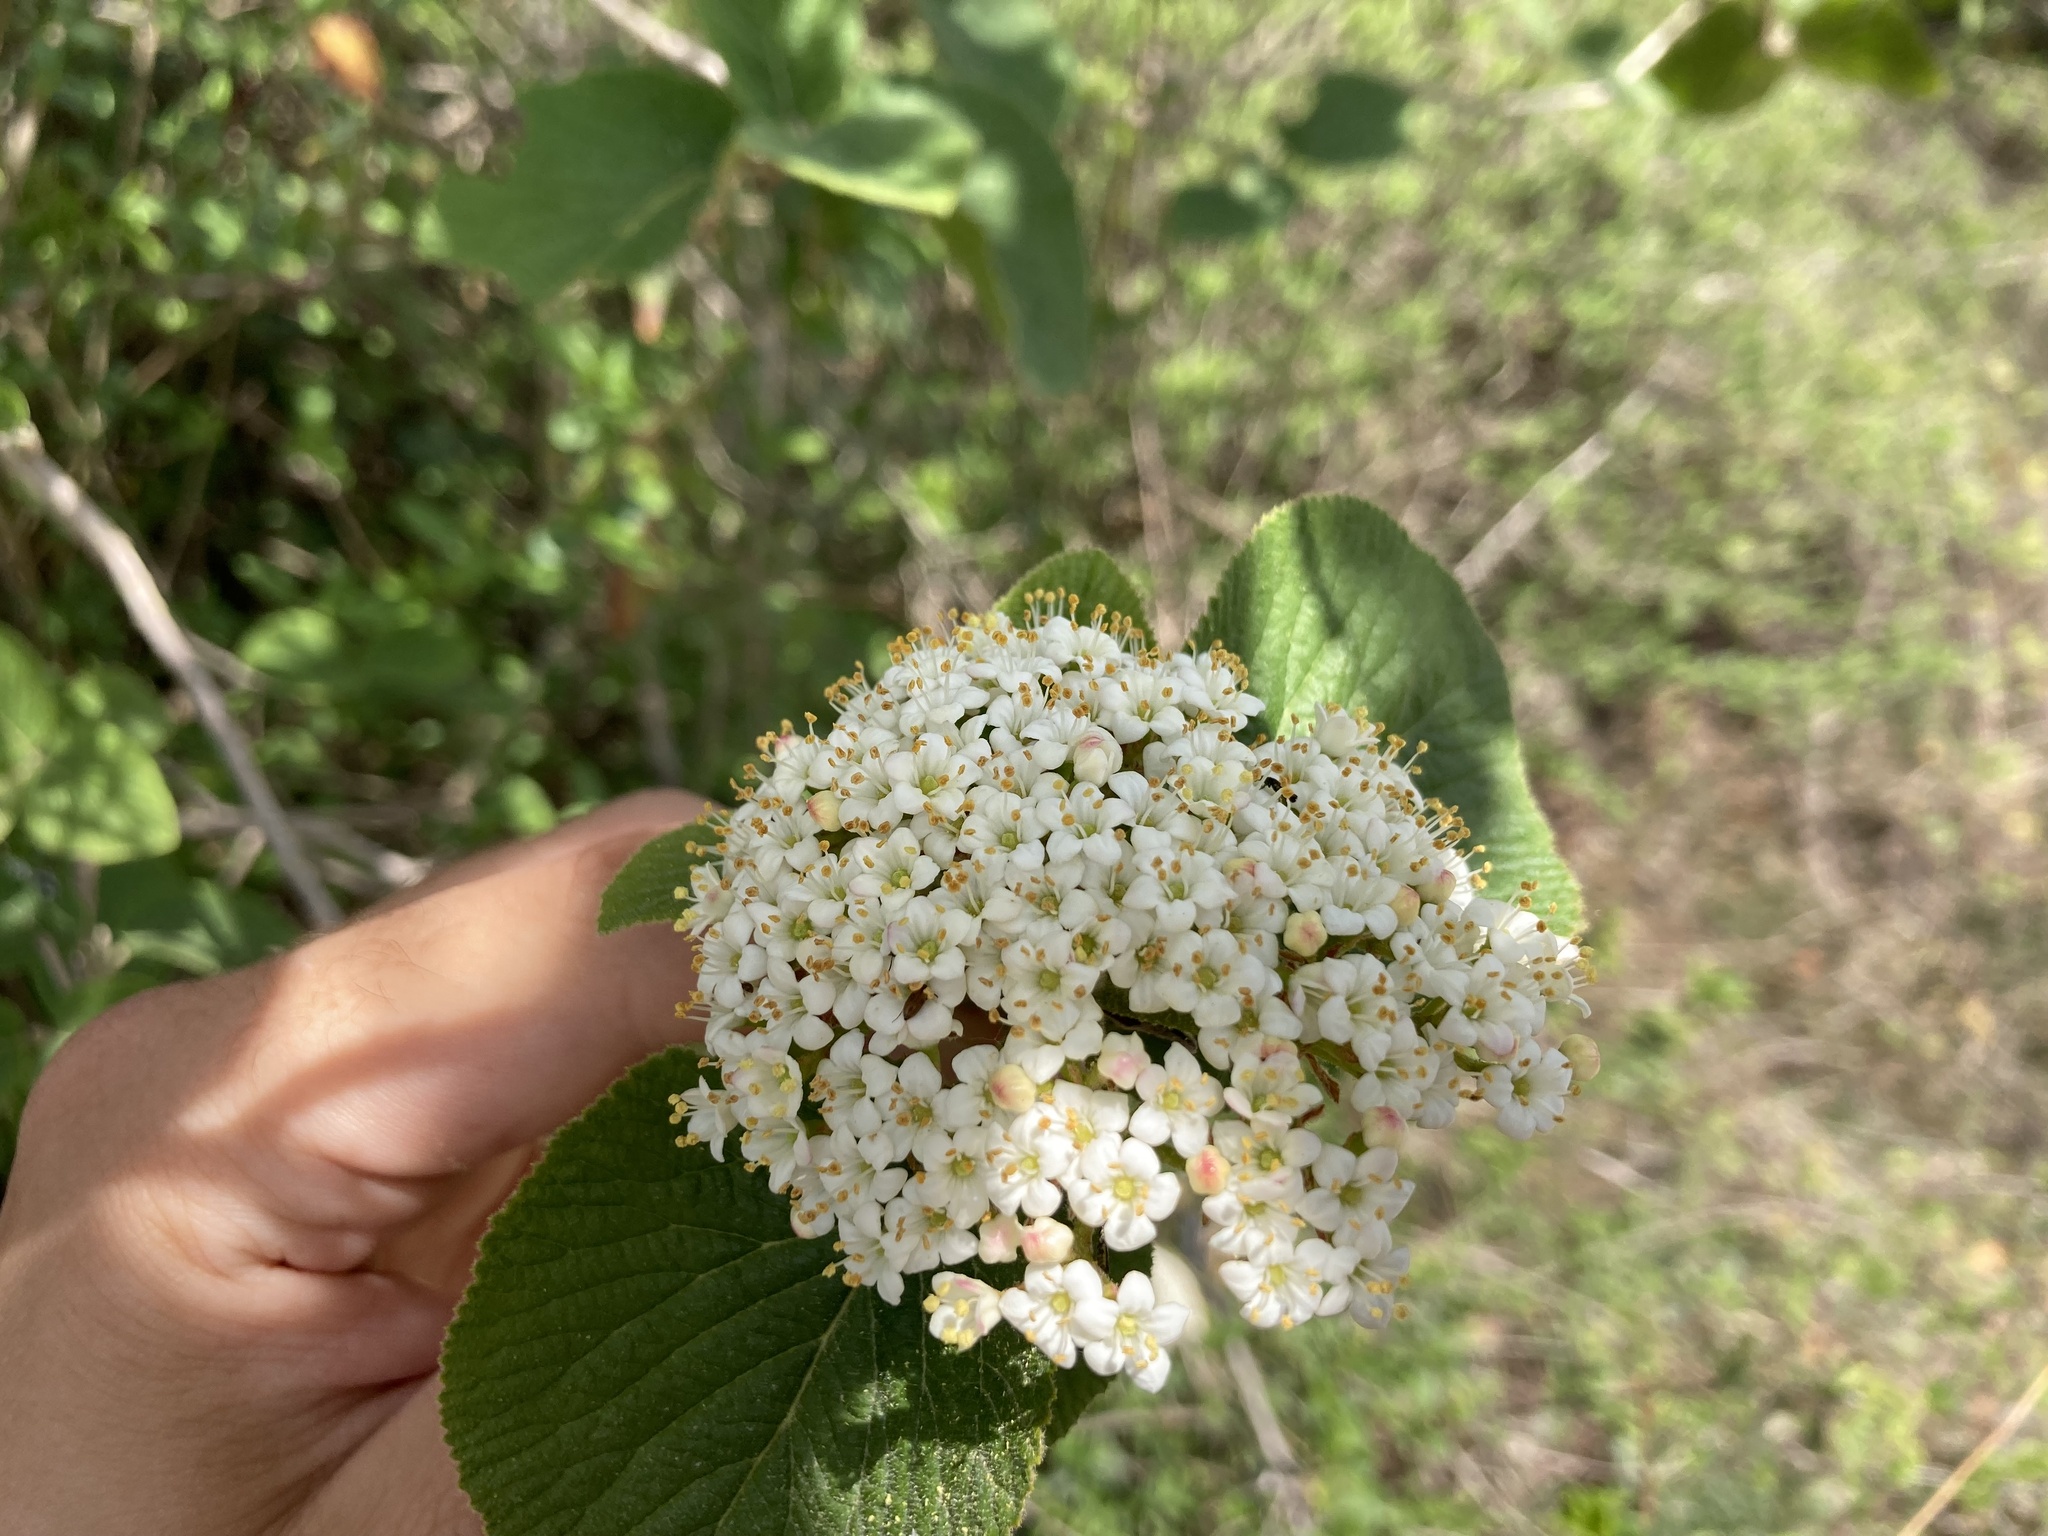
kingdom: Plantae
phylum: Tracheophyta
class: Magnoliopsida
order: Dipsacales
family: Viburnaceae
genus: Viburnum
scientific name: Viburnum lantana
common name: Wayfaring tree
